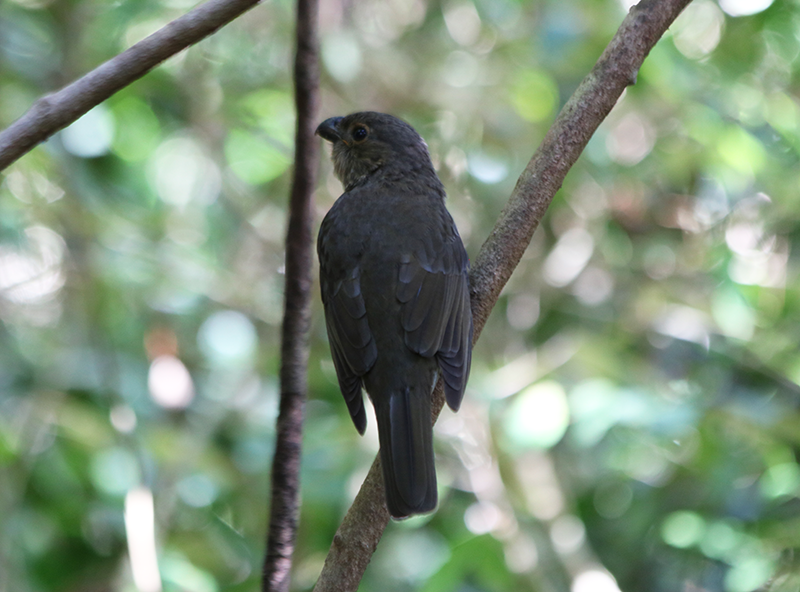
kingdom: Animalia
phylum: Chordata
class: Aves
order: Passeriformes
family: Ptilonorhynchidae
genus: Scenopoeetes
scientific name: Scenopoeetes dentirostris
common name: Tooth-billed bowerbird
